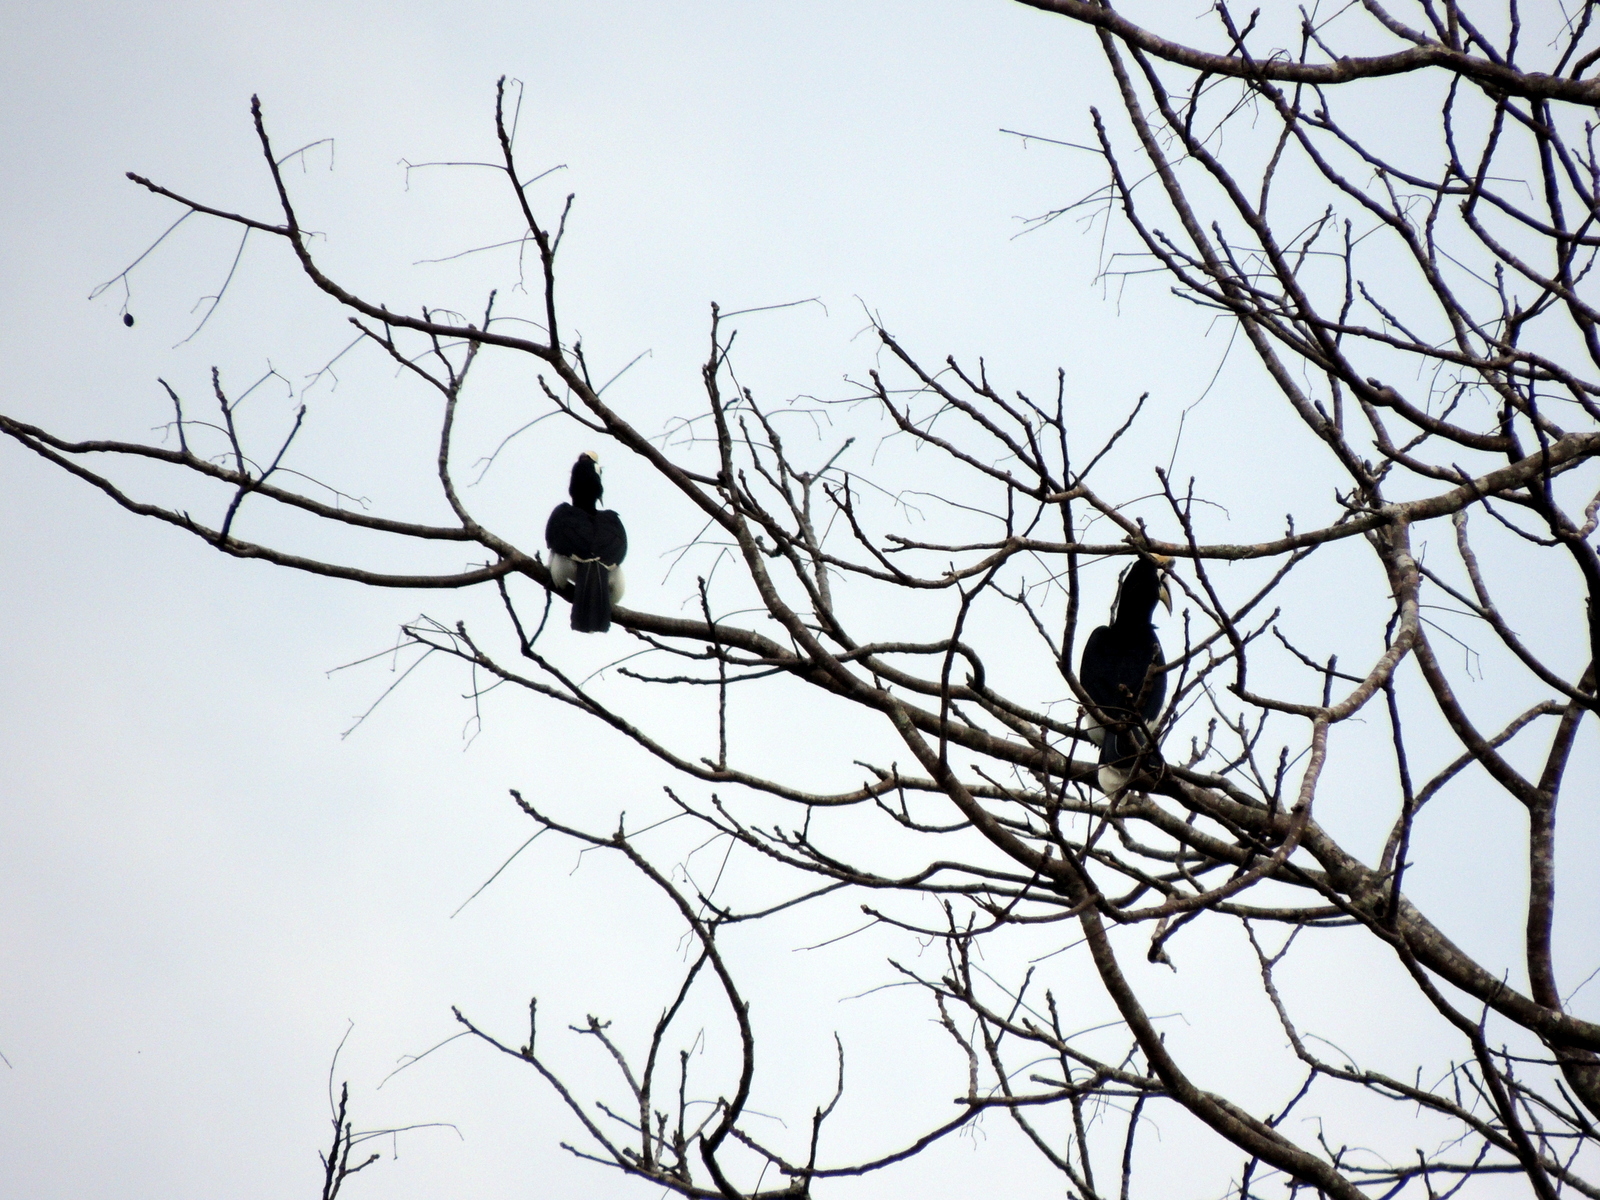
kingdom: Animalia
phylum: Chordata
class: Aves
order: Bucerotiformes
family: Bucerotidae
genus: Anthracoceros
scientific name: Anthracoceros albirostris
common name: Oriental pied-hornbill
